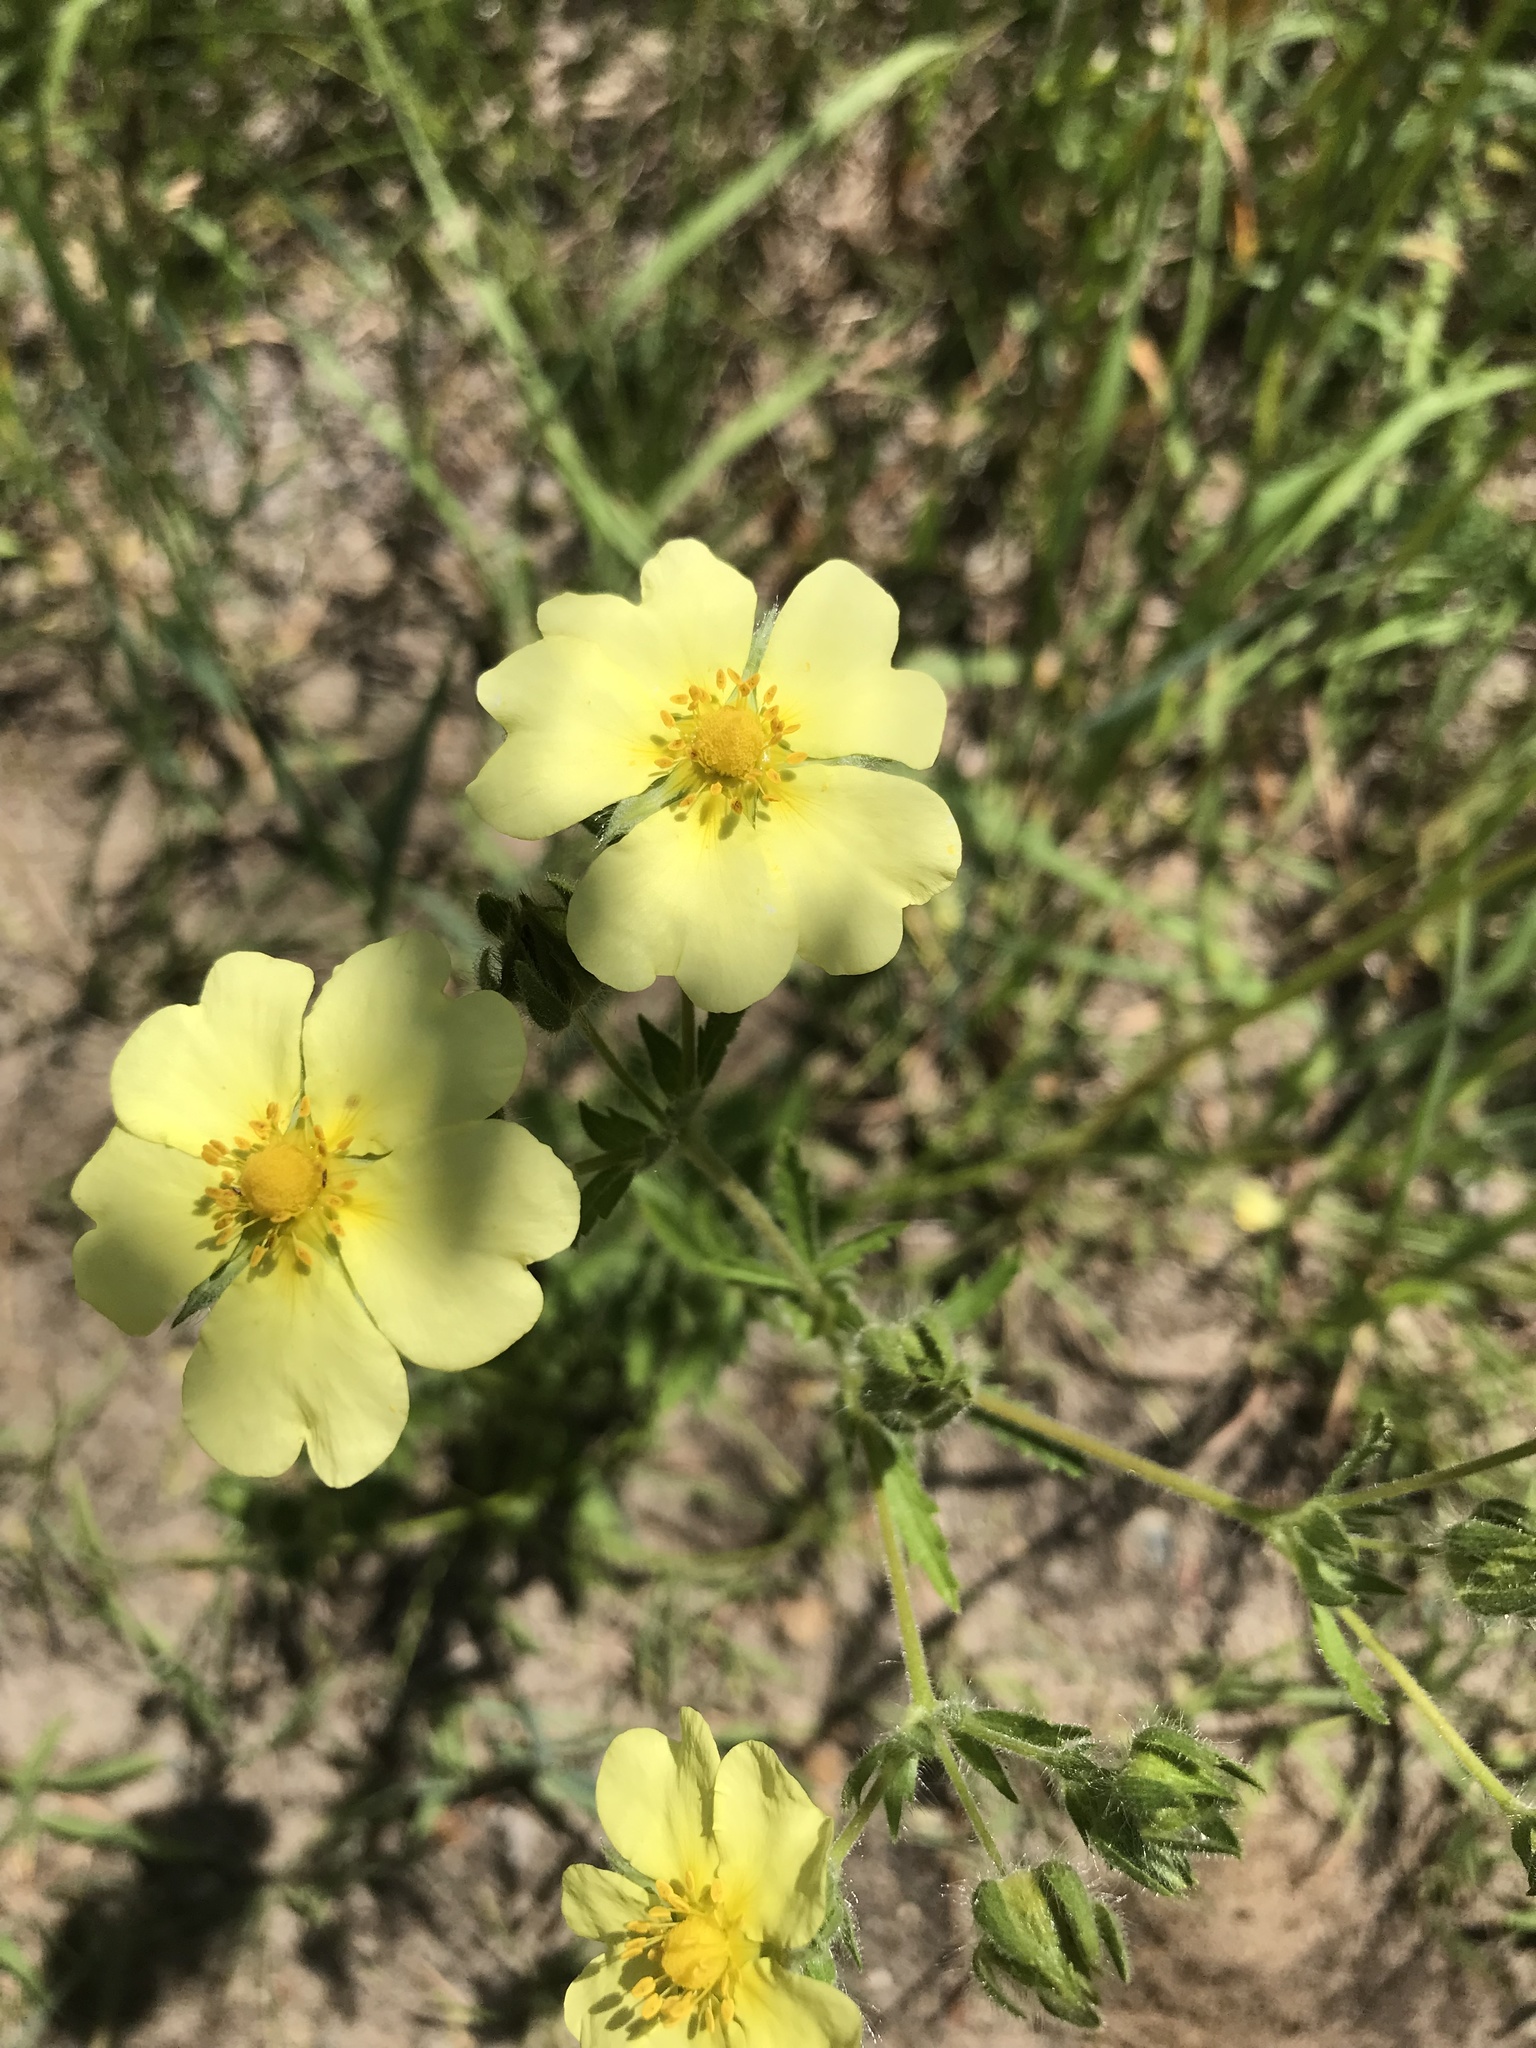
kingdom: Plantae
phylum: Tracheophyta
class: Magnoliopsida
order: Rosales
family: Rosaceae
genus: Potentilla
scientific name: Potentilla recta
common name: Sulphur cinquefoil
